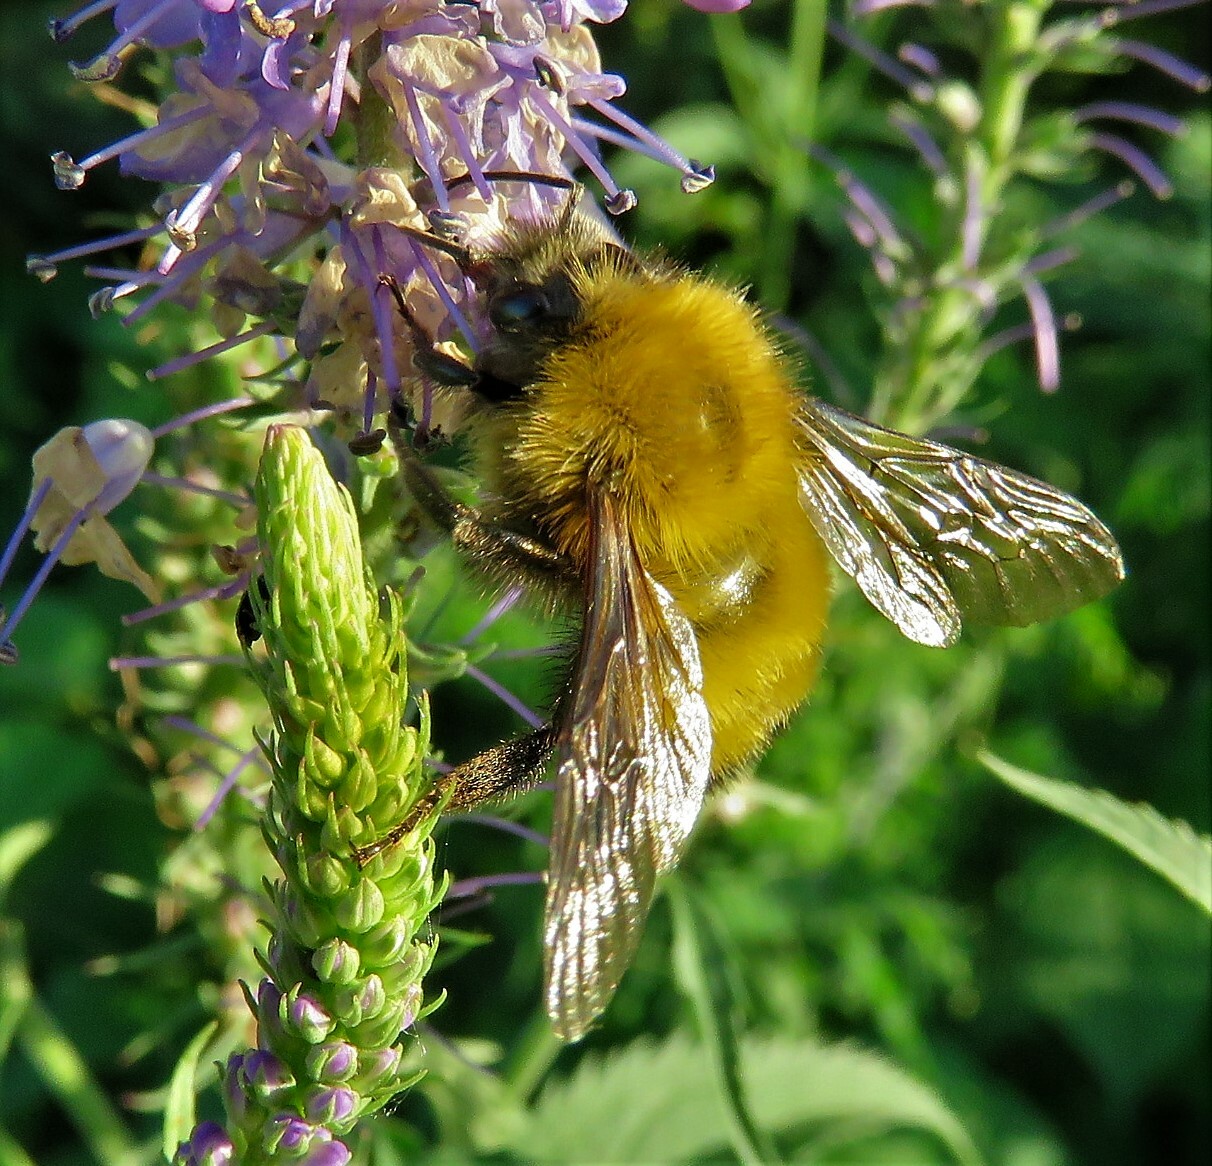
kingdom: Animalia
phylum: Arthropoda
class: Insecta
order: Hymenoptera
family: Apidae
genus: Bombus
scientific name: Bombus perplexus
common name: Confusing bumble bee
